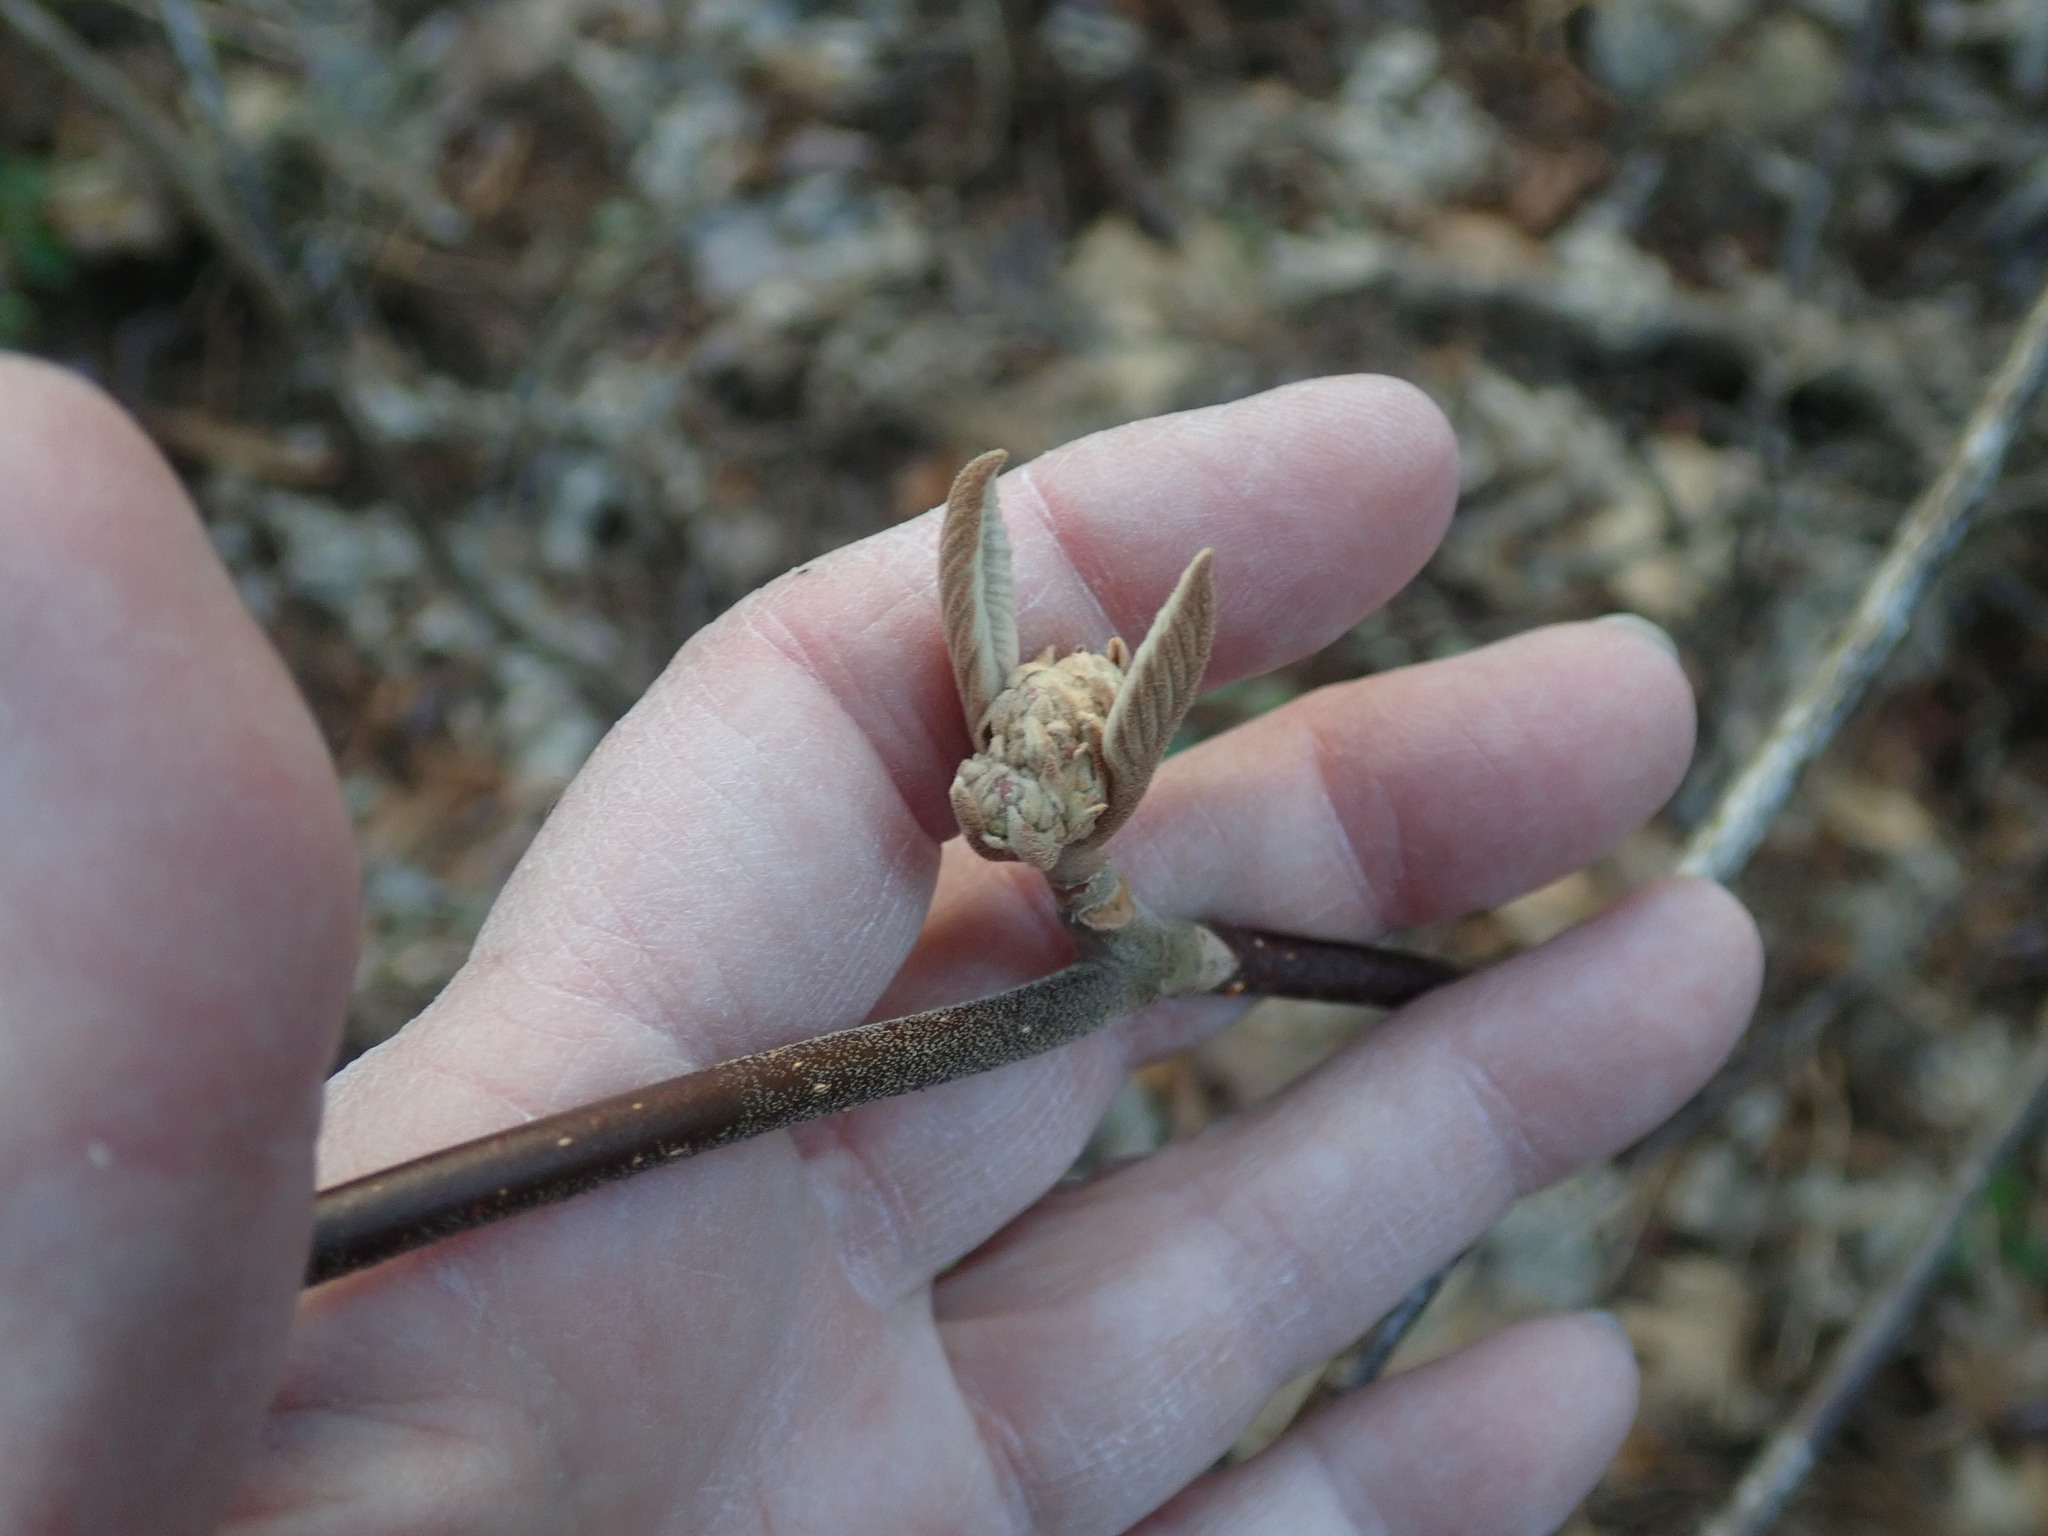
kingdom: Plantae
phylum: Tracheophyta
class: Magnoliopsida
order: Dipsacales
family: Viburnaceae
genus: Viburnum
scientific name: Viburnum lantanoides
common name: Hobblebush
